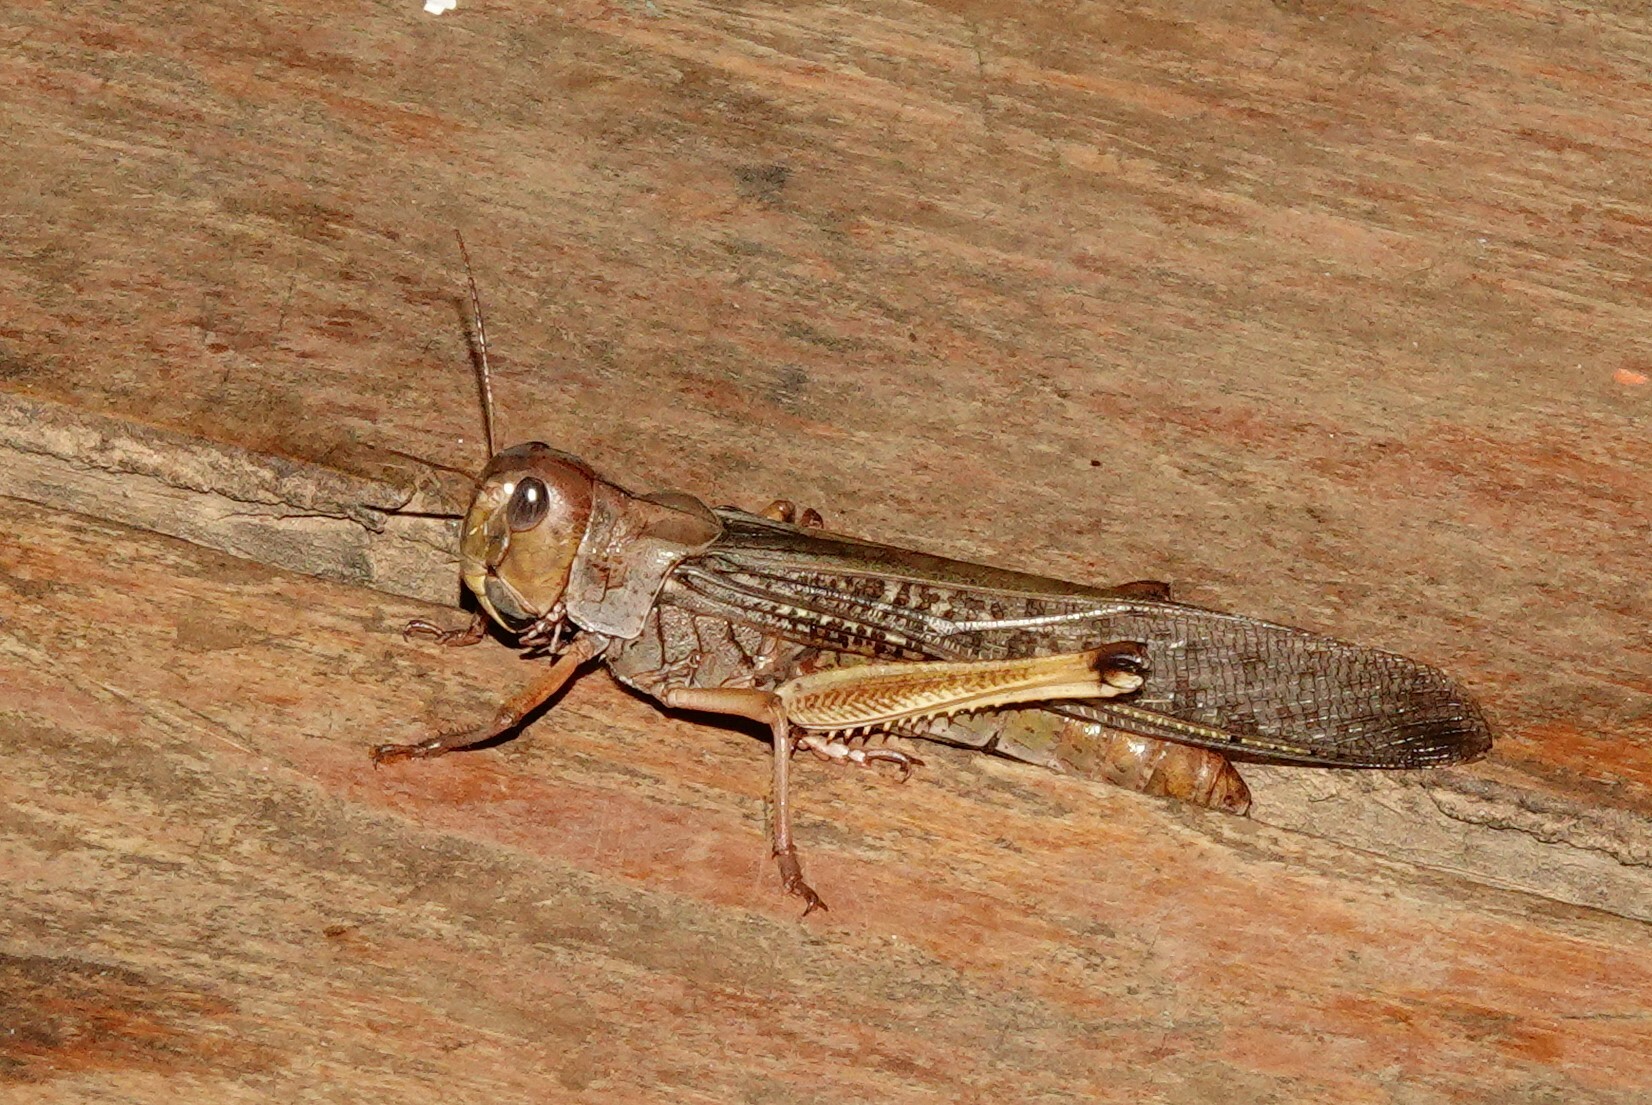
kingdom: Animalia
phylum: Arthropoda
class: Insecta
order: Orthoptera
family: Acrididae
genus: Locusta
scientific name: Locusta migratoria
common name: Migratory locust
